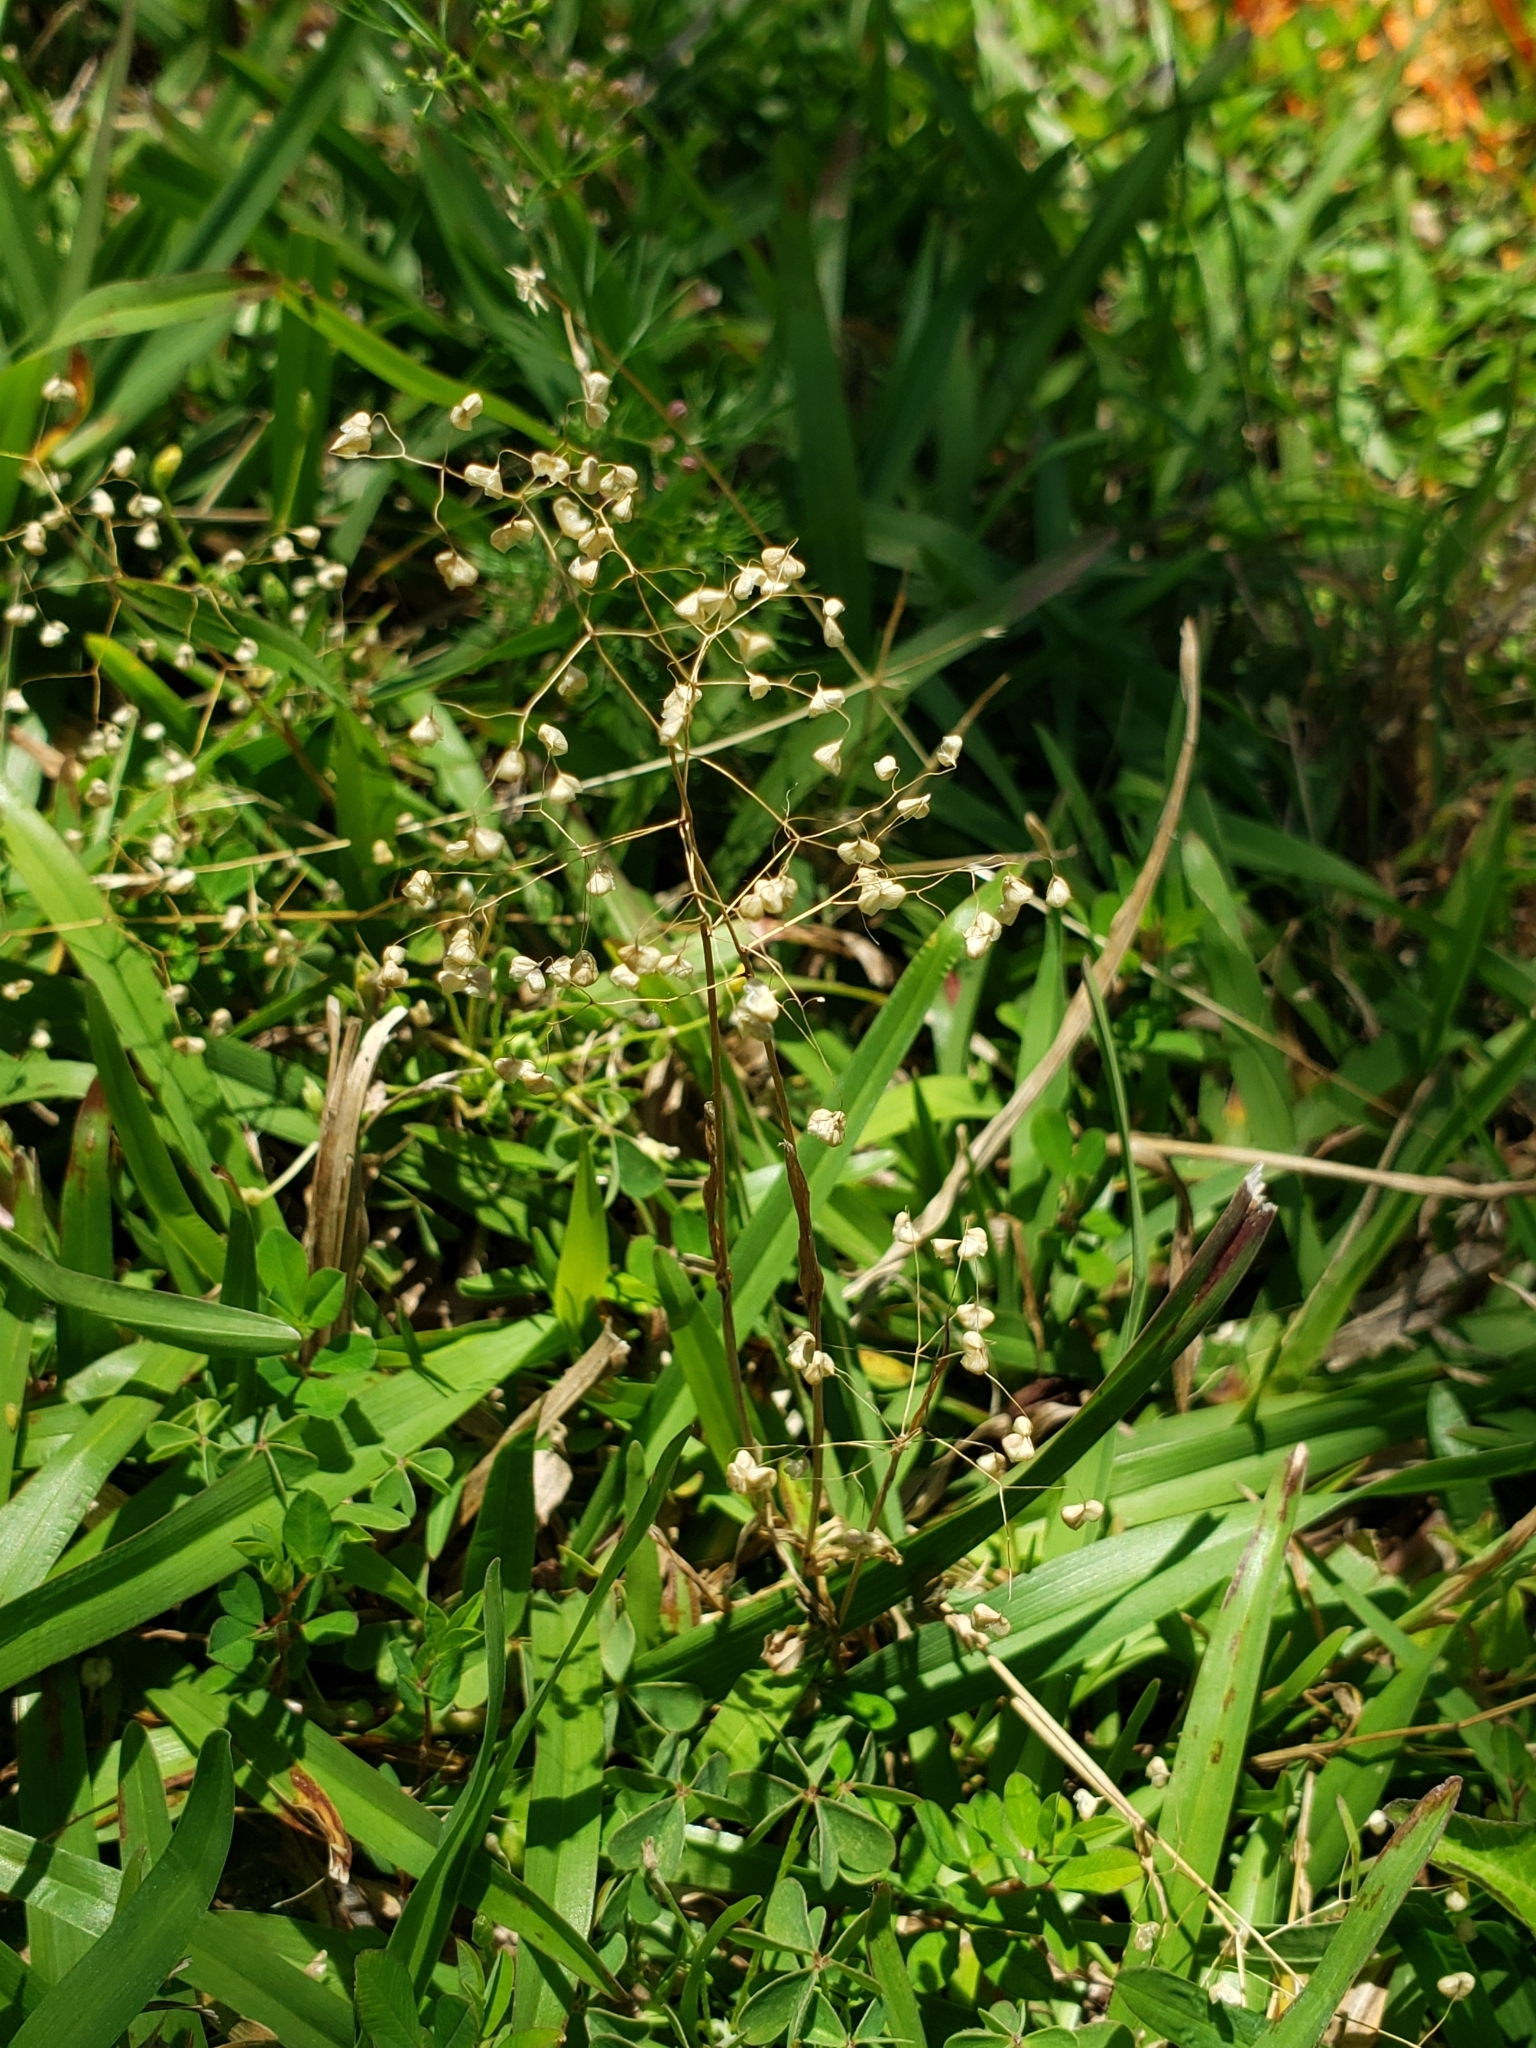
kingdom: Plantae
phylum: Tracheophyta
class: Liliopsida
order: Poales
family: Poaceae
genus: Briza
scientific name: Briza minor
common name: Lesser quaking-grass
